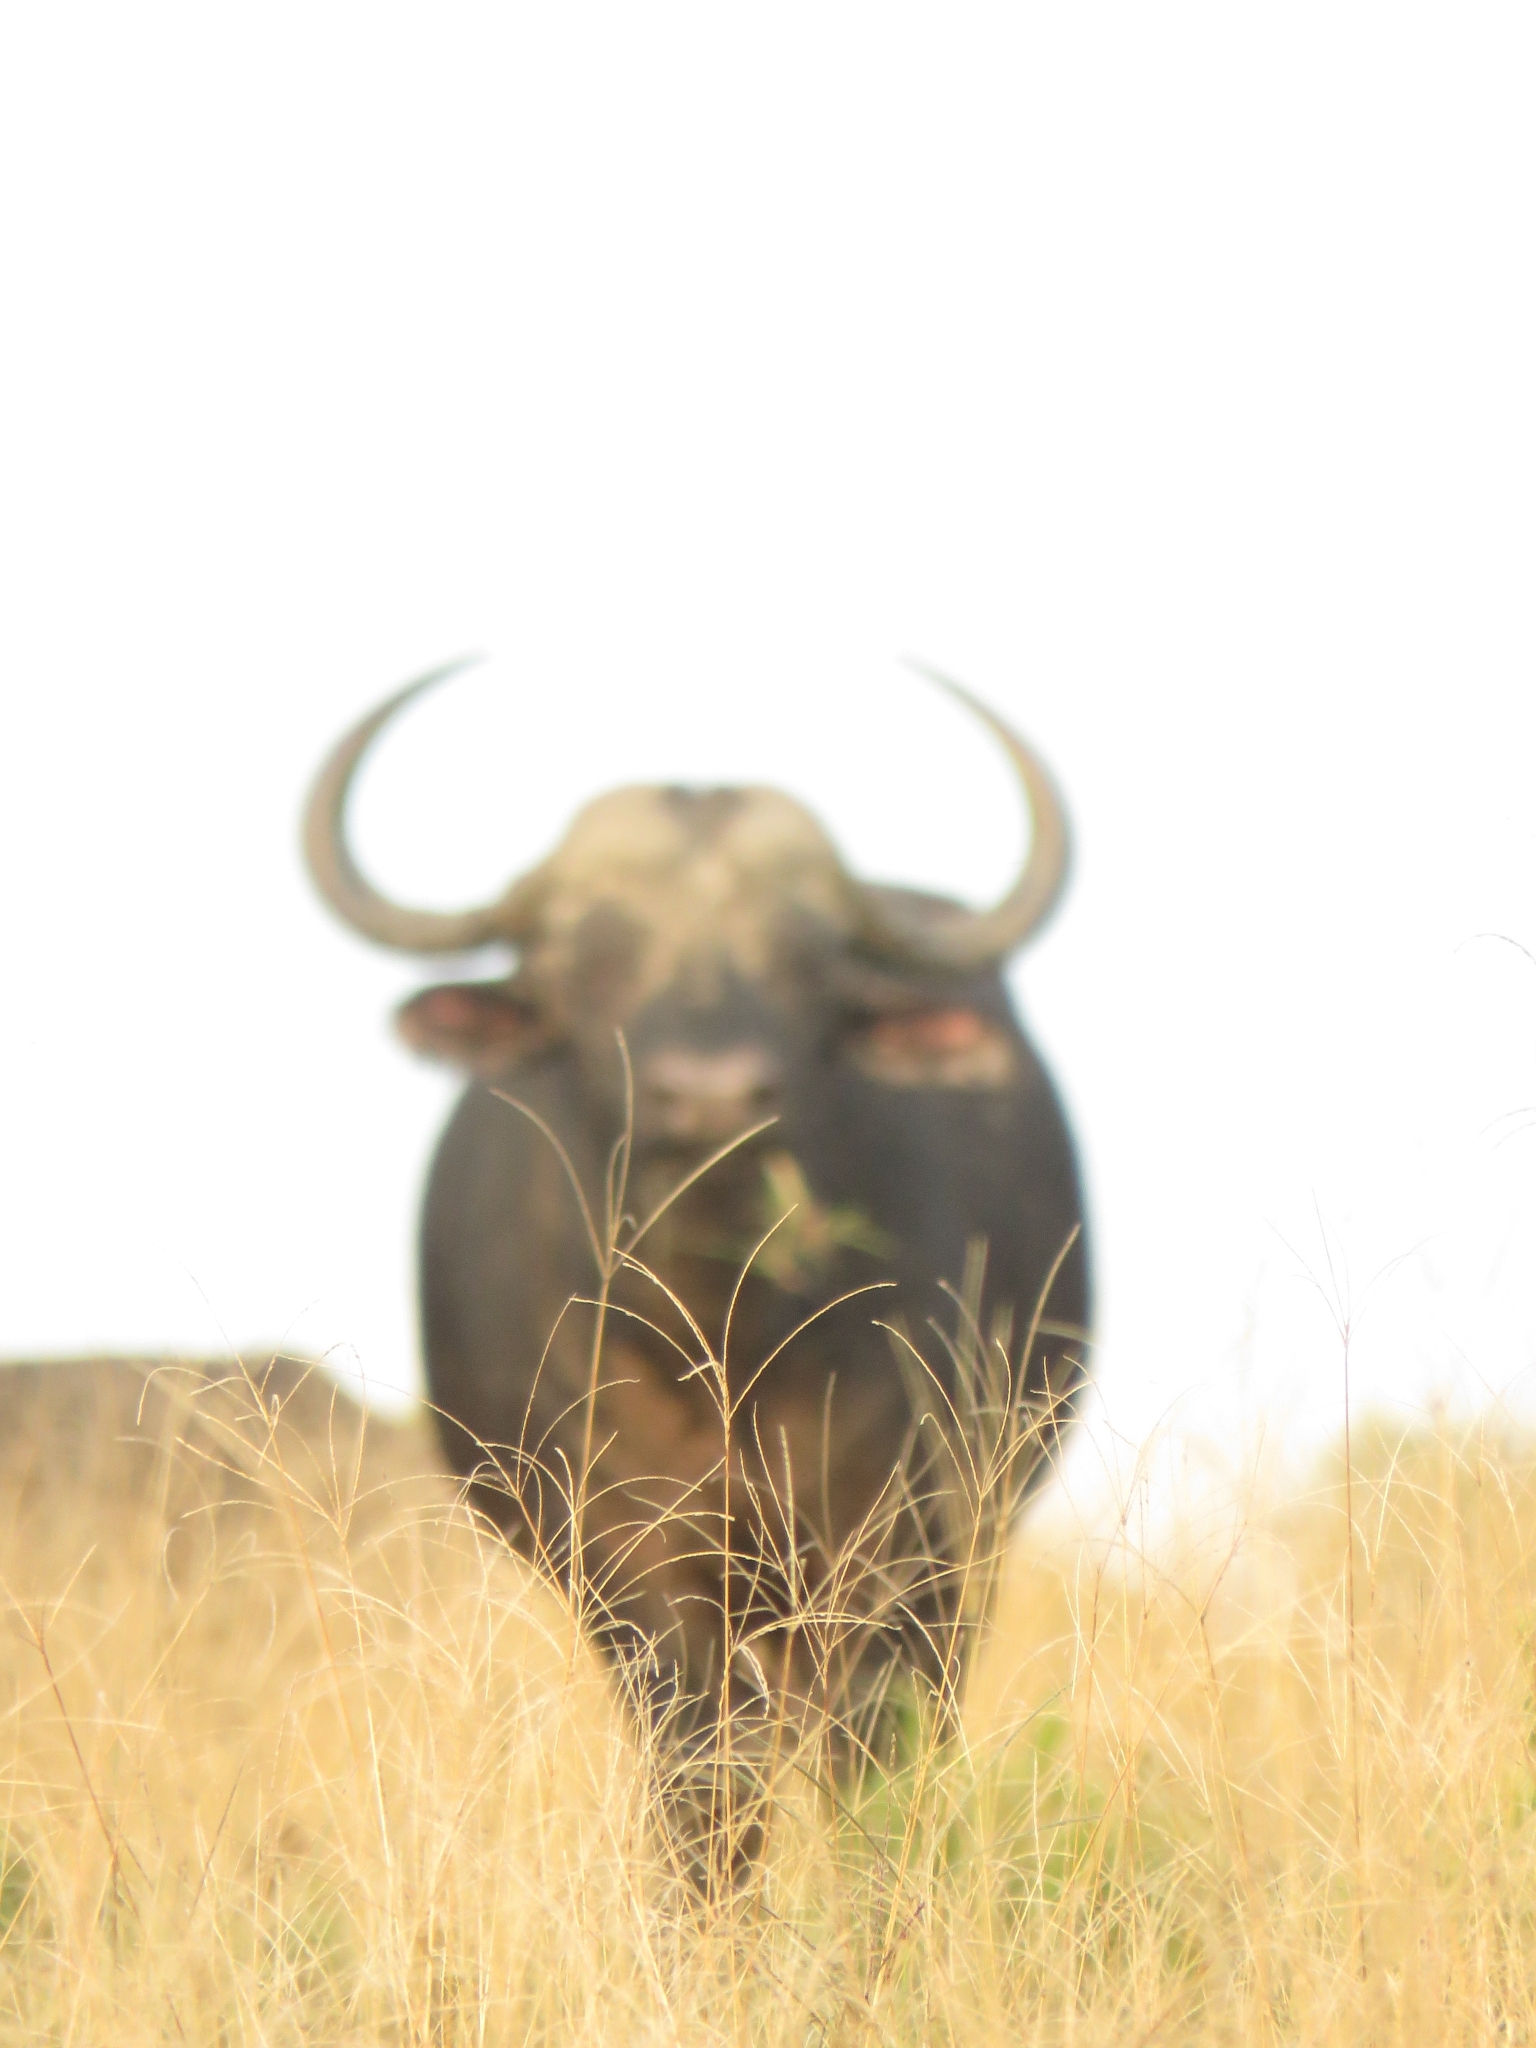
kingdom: Plantae
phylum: Tracheophyta
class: Liliopsida
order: Poales
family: Poaceae
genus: Digitaria
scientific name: Digitaria eriantha
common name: Digitgrass
